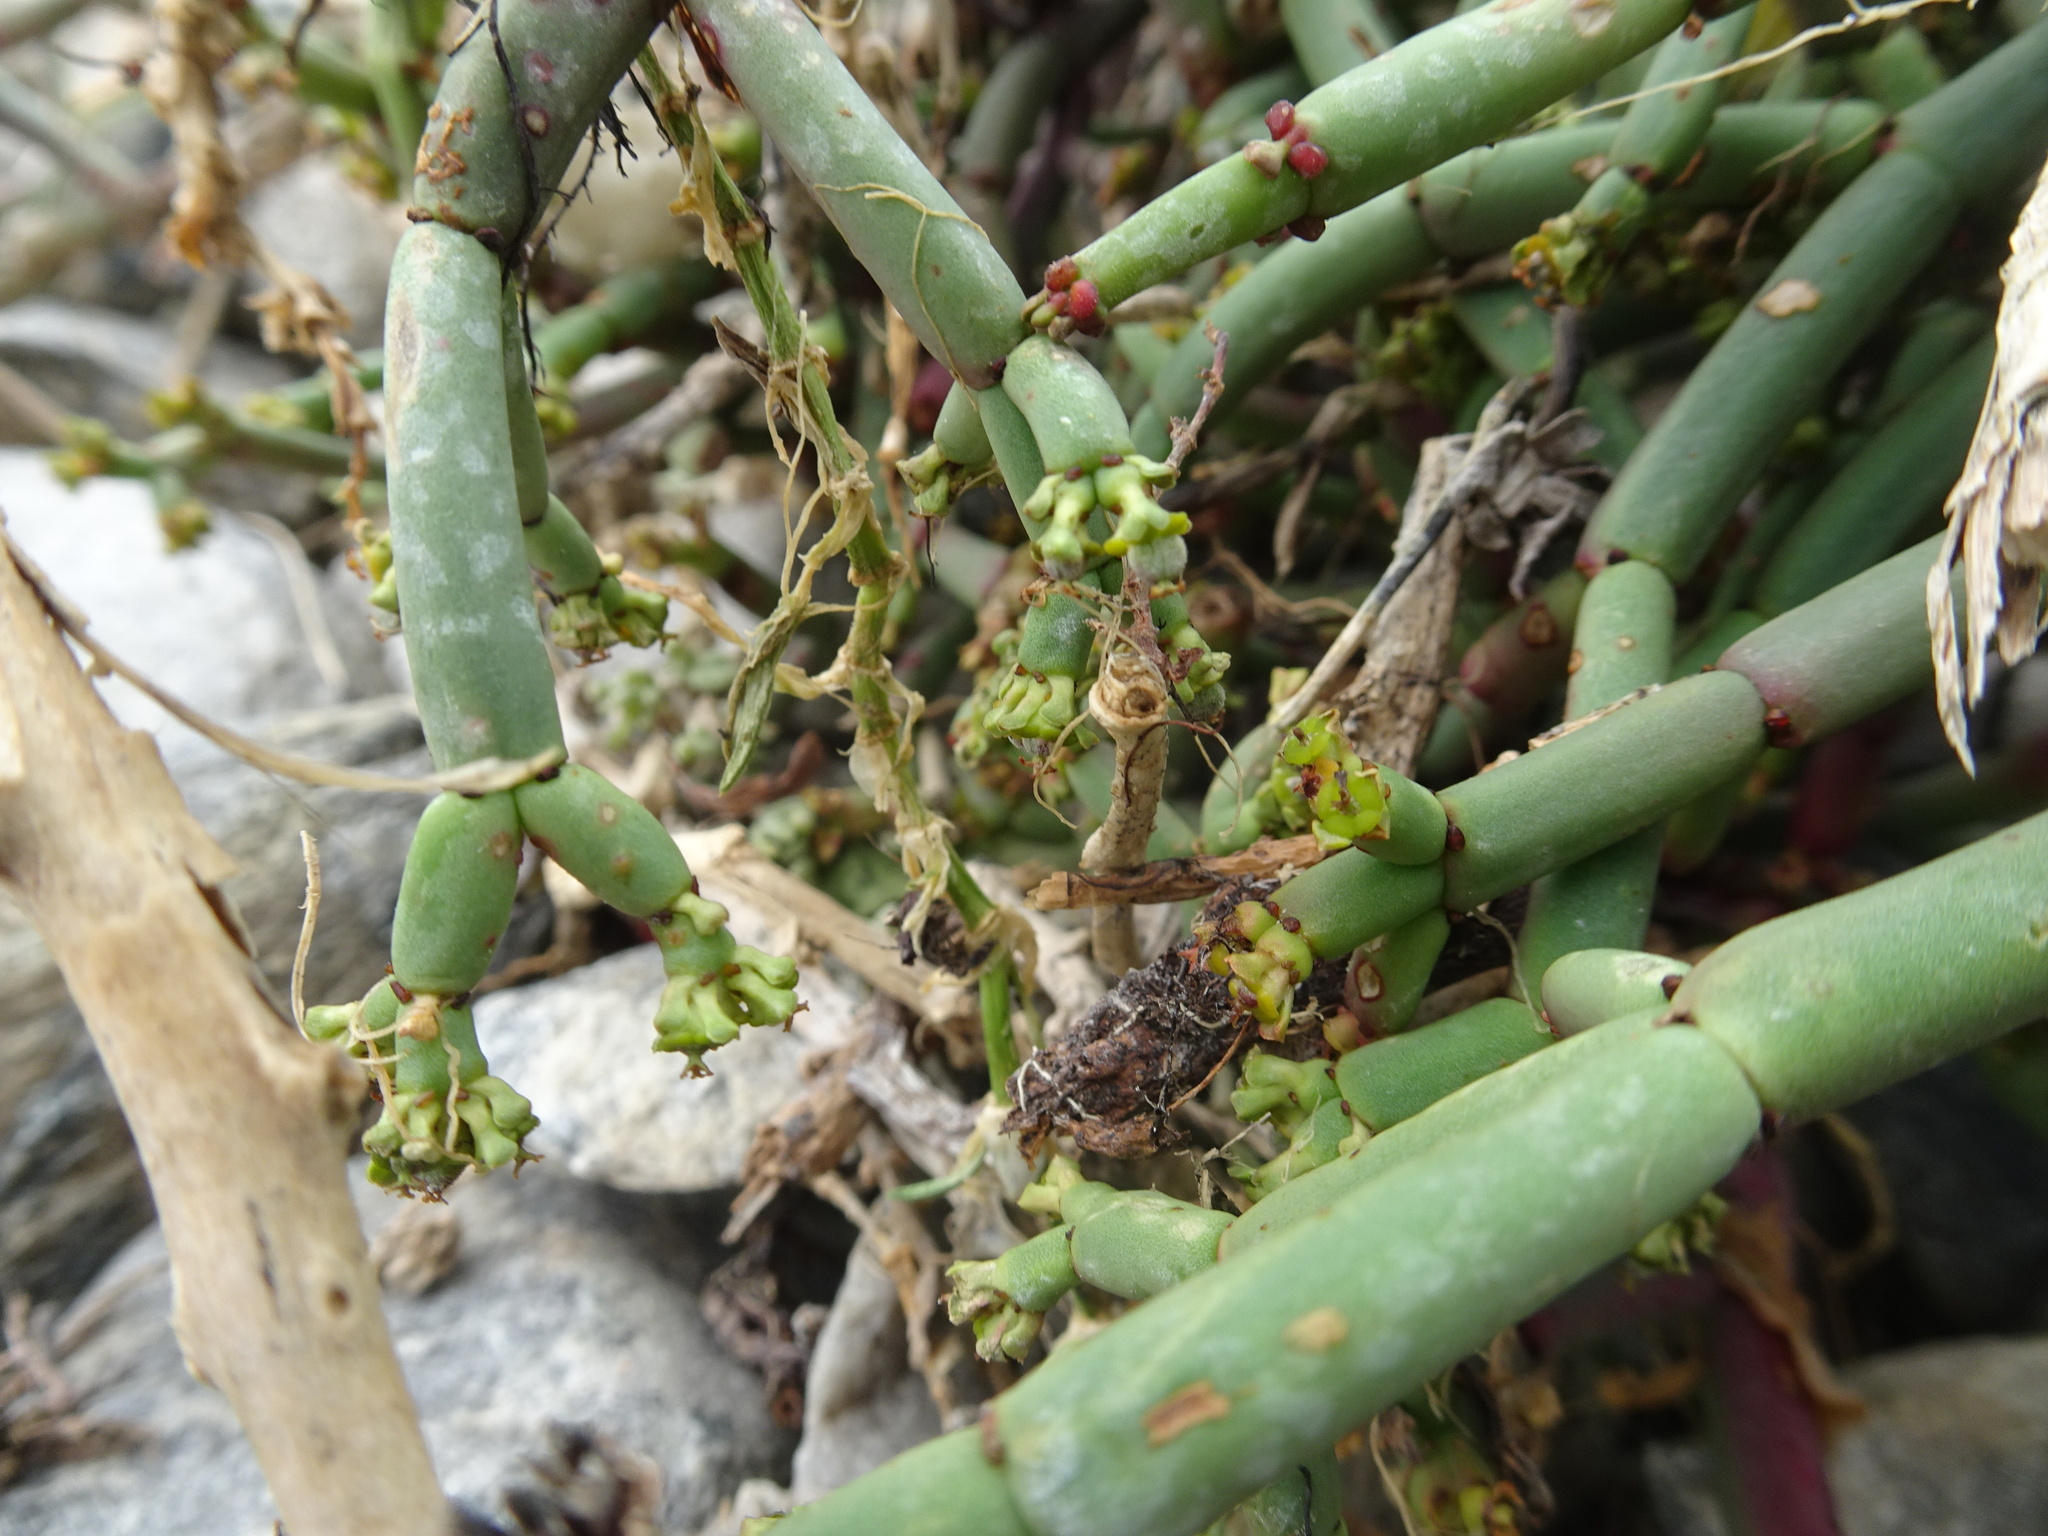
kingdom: Plantae
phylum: Tracheophyta
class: Magnoliopsida
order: Malpighiales
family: Euphorbiaceae
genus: Euphorbia
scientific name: Euphorbia burmanni
